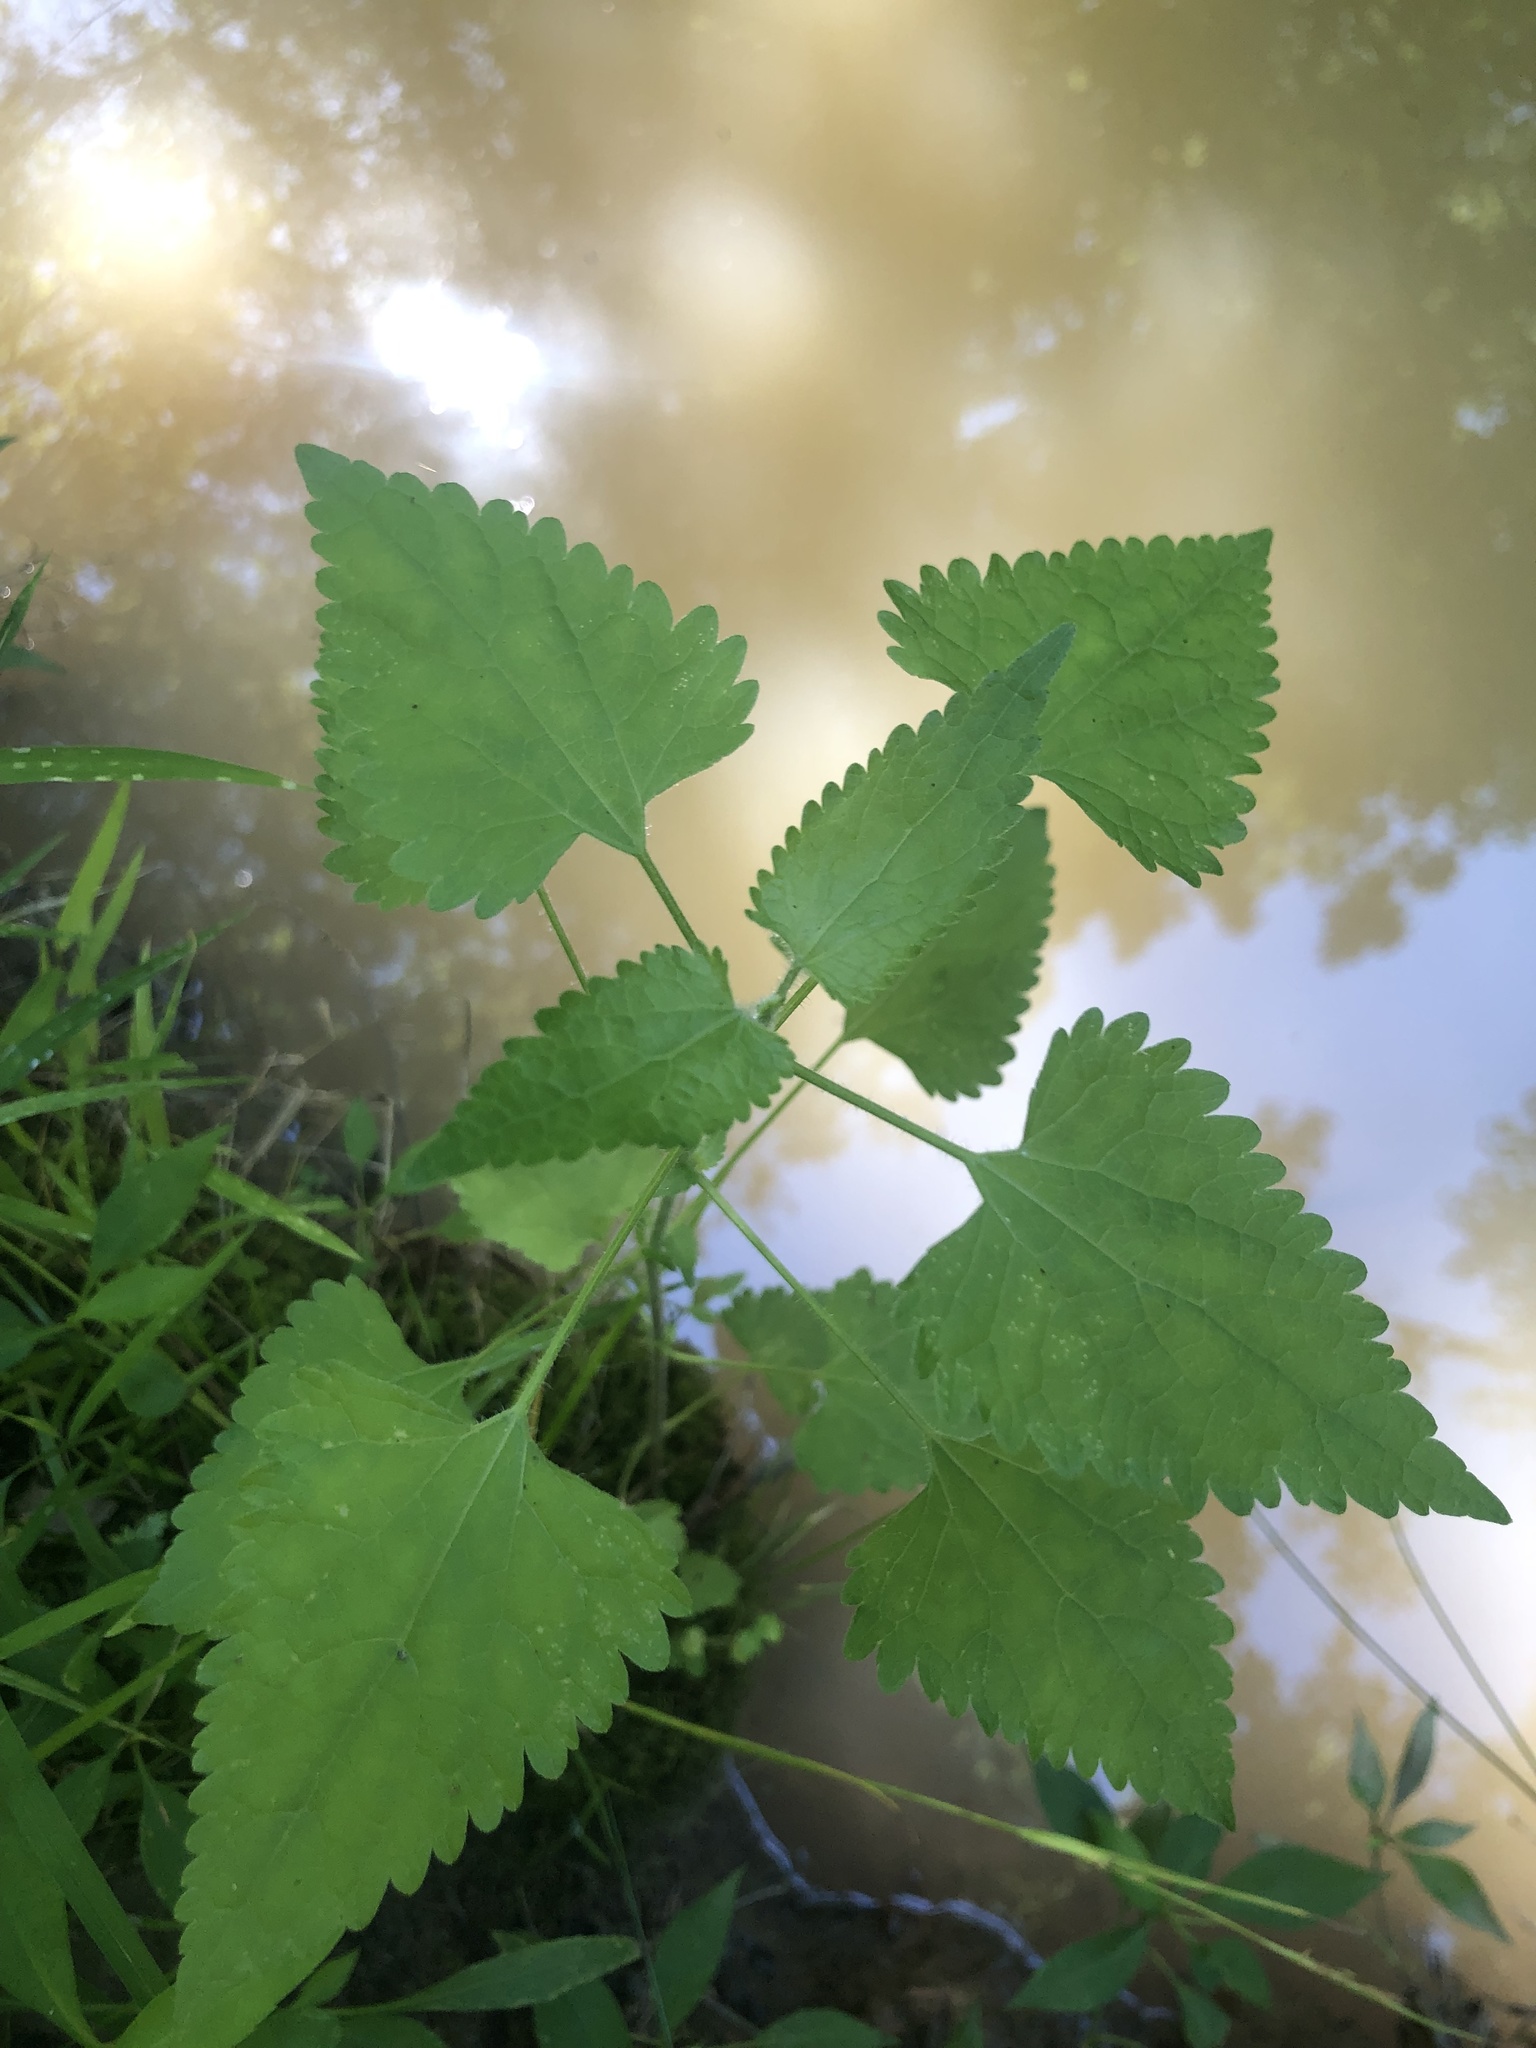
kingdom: Plantae
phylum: Tracheophyta
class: Magnoliopsida
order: Asterales
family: Asteraceae
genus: Fleischmannia
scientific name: Fleischmannia incarnata
